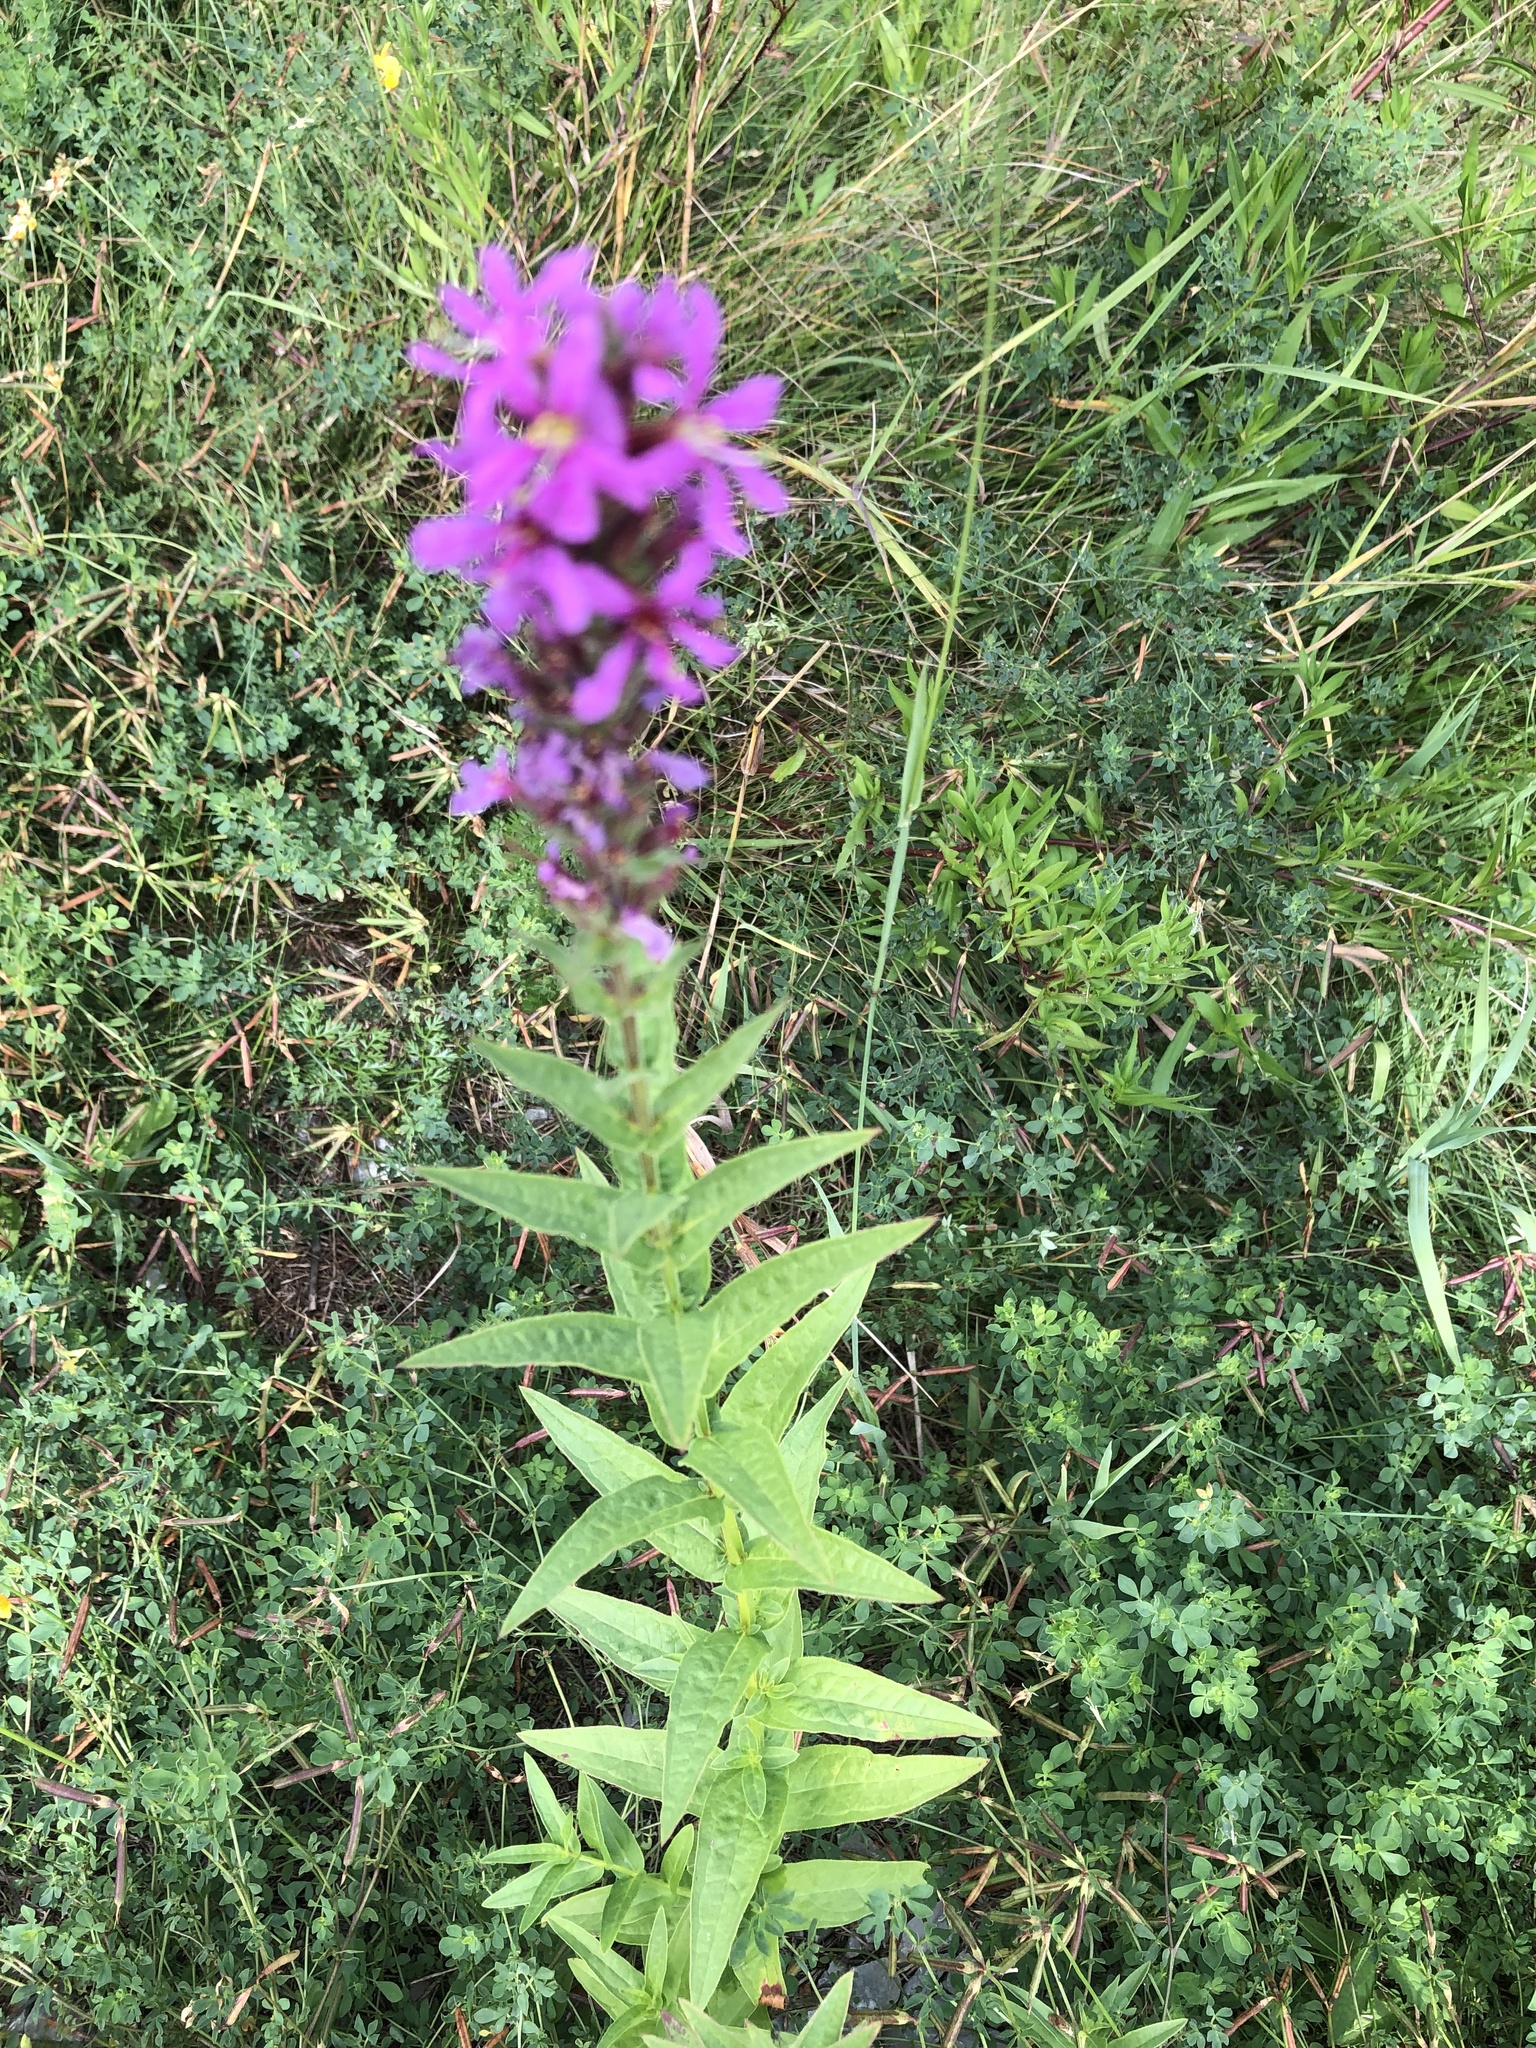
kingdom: Plantae
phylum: Tracheophyta
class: Magnoliopsida
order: Myrtales
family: Lythraceae
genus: Lythrum
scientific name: Lythrum salicaria
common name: Purple loosestrife
